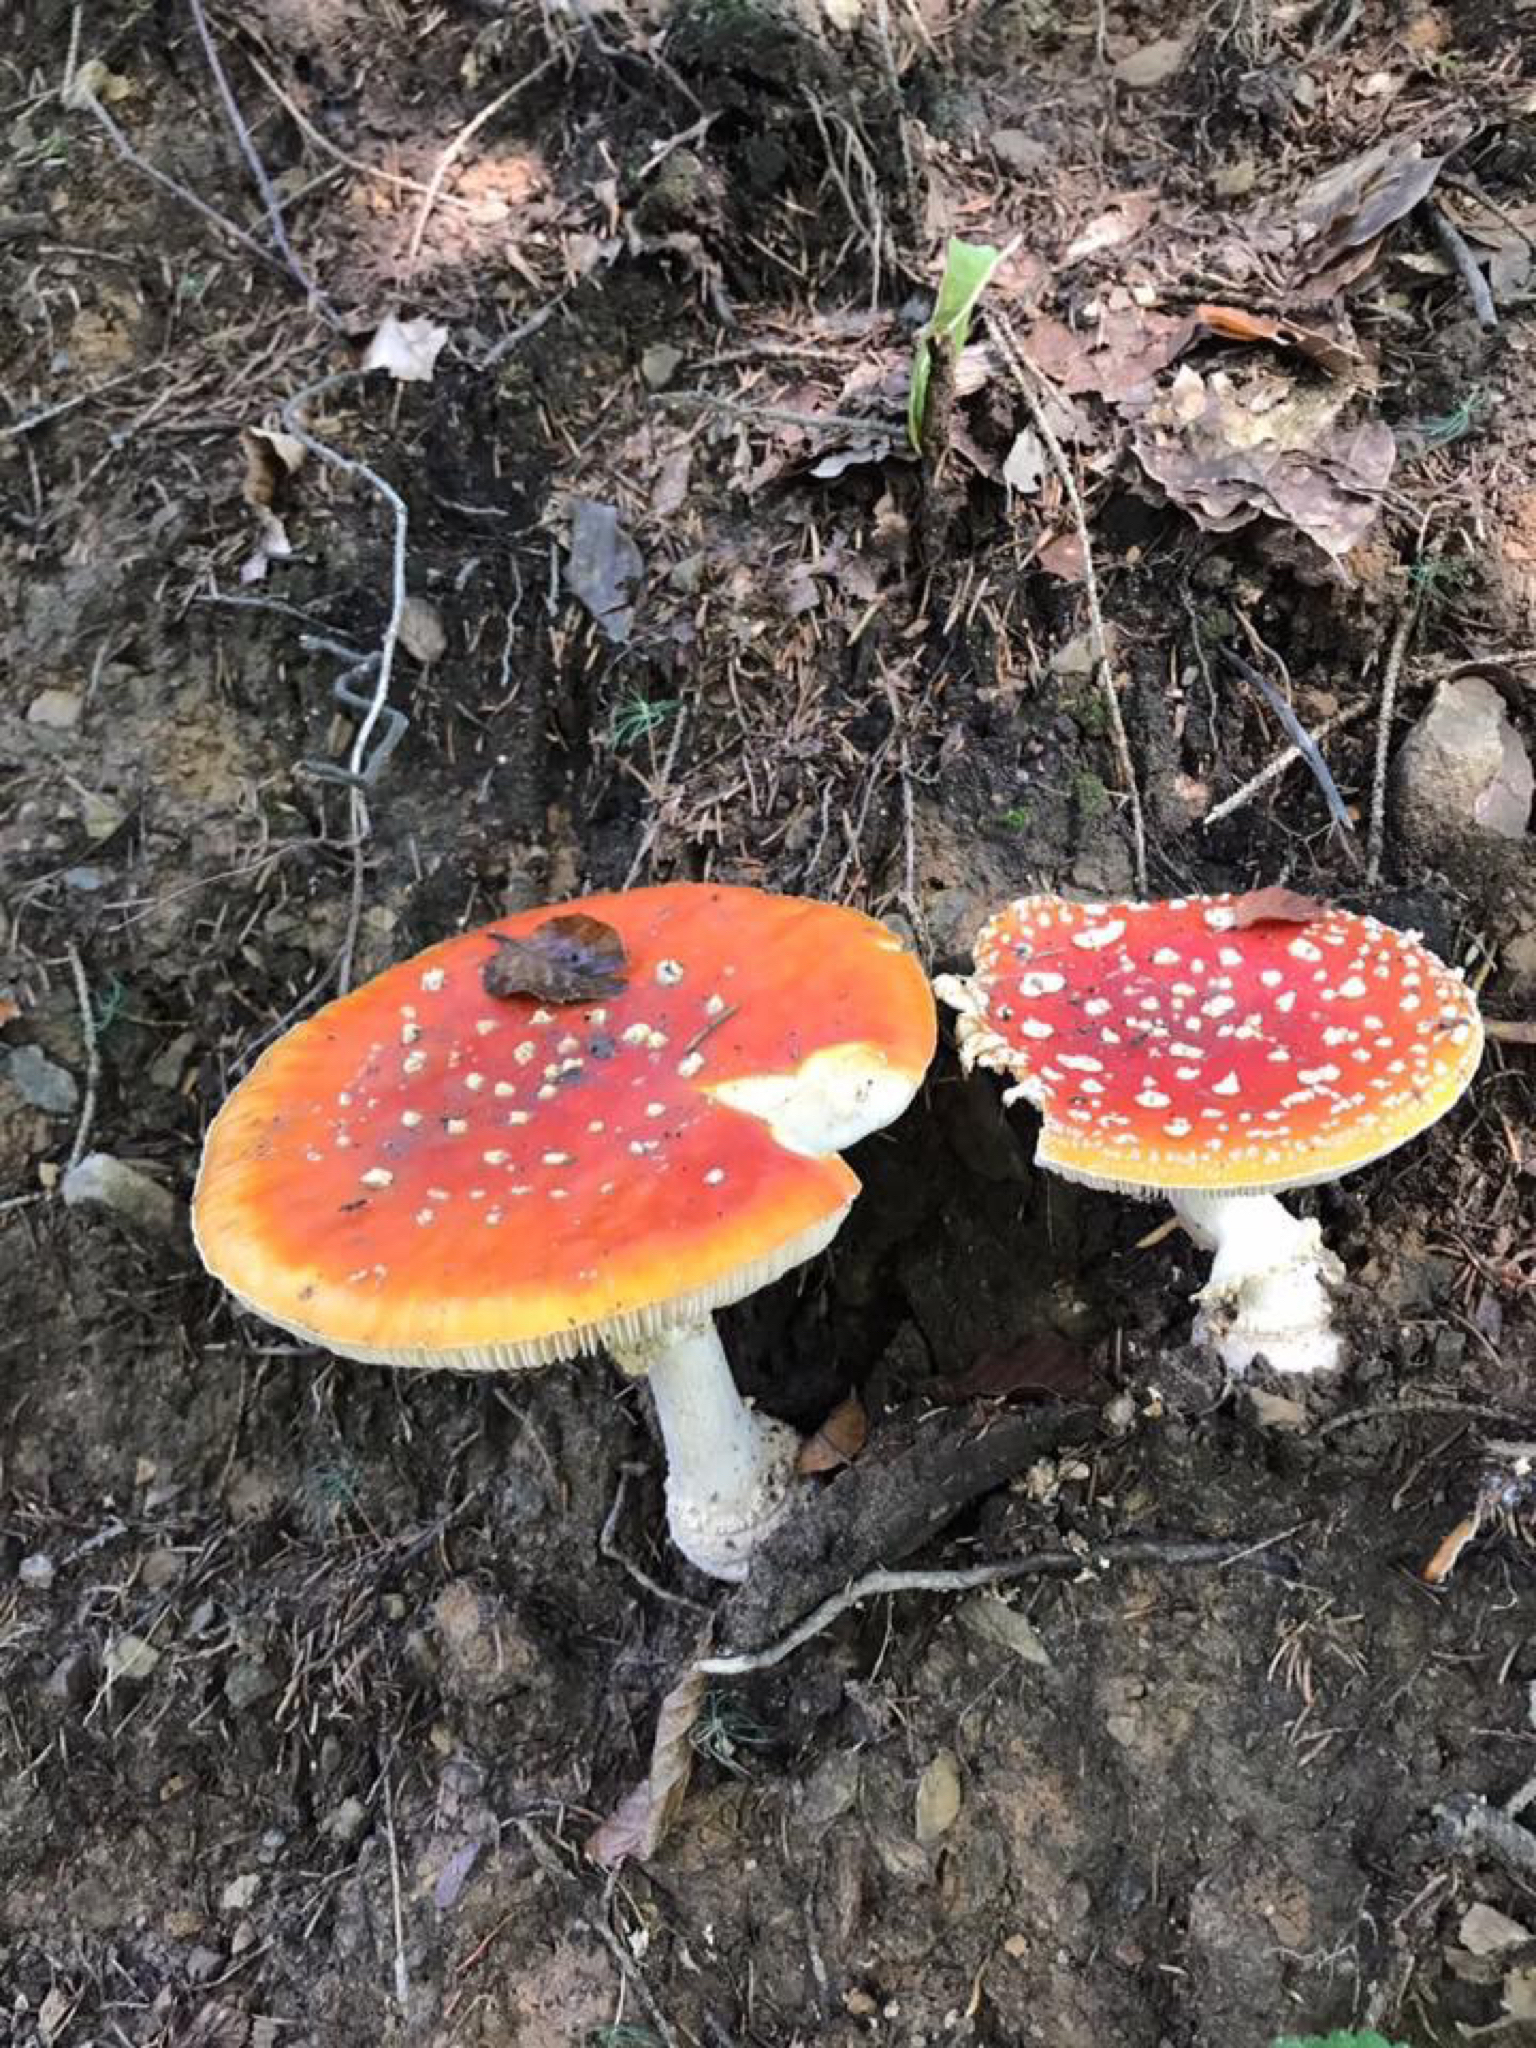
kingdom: Fungi
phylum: Basidiomycota
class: Agaricomycetes
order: Agaricales
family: Amanitaceae
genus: Amanita
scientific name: Amanita muscaria
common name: Fly agaric
